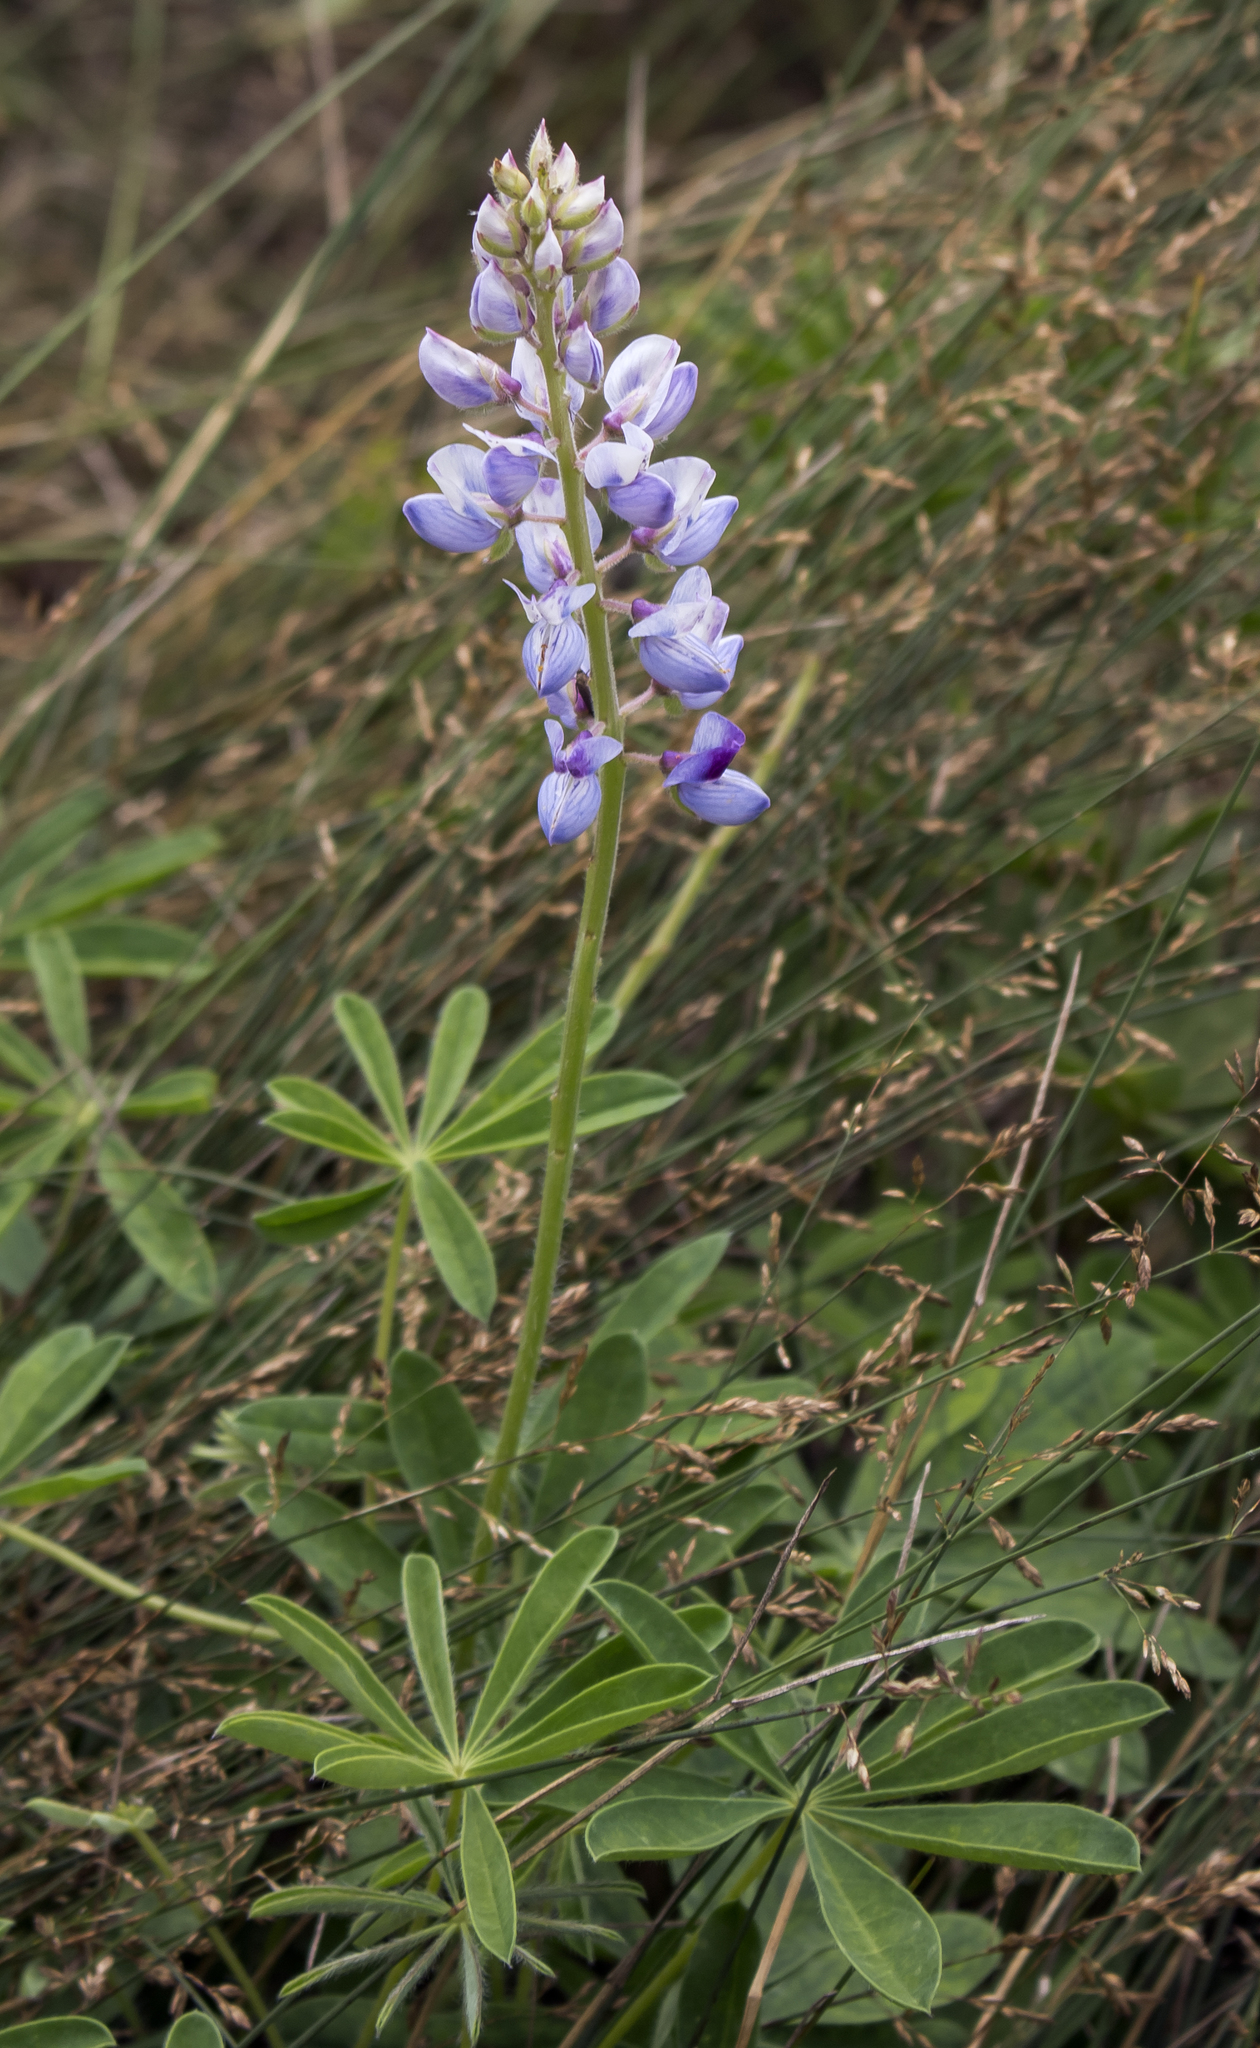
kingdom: Plantae
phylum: Tracheophyta
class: Magnoliopsida
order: Fabales
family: Fabaceae
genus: Lupinus
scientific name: Lupinus perennis
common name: Sundial lupine
